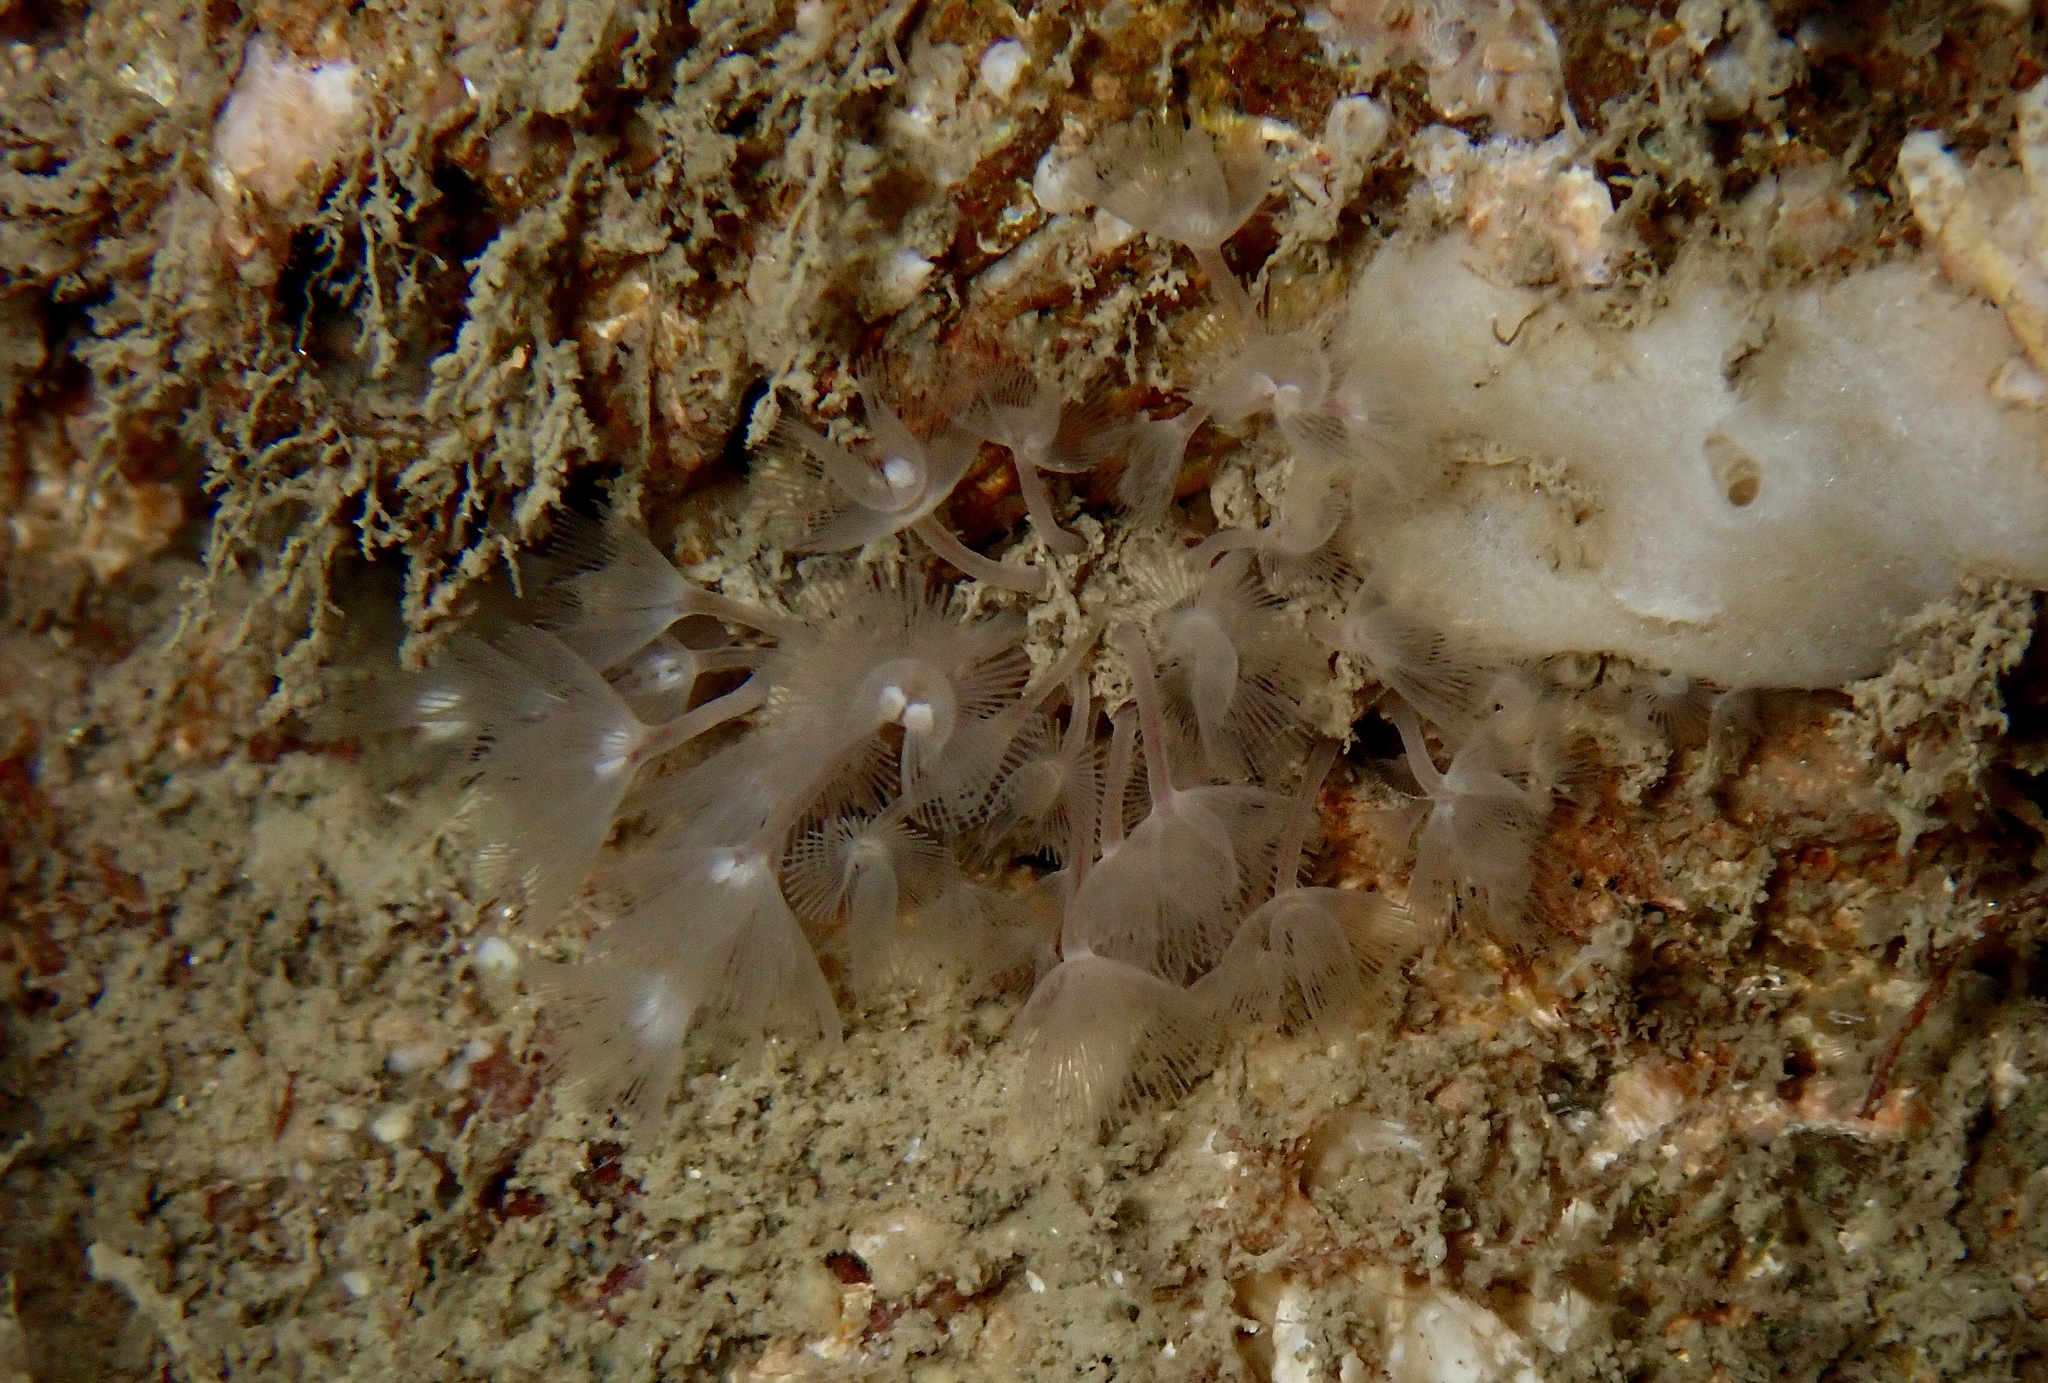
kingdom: Animalia
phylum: Phoronida
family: Phoronidae
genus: Phoronis
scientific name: Phoronis hippocrepia
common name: Phoronid
